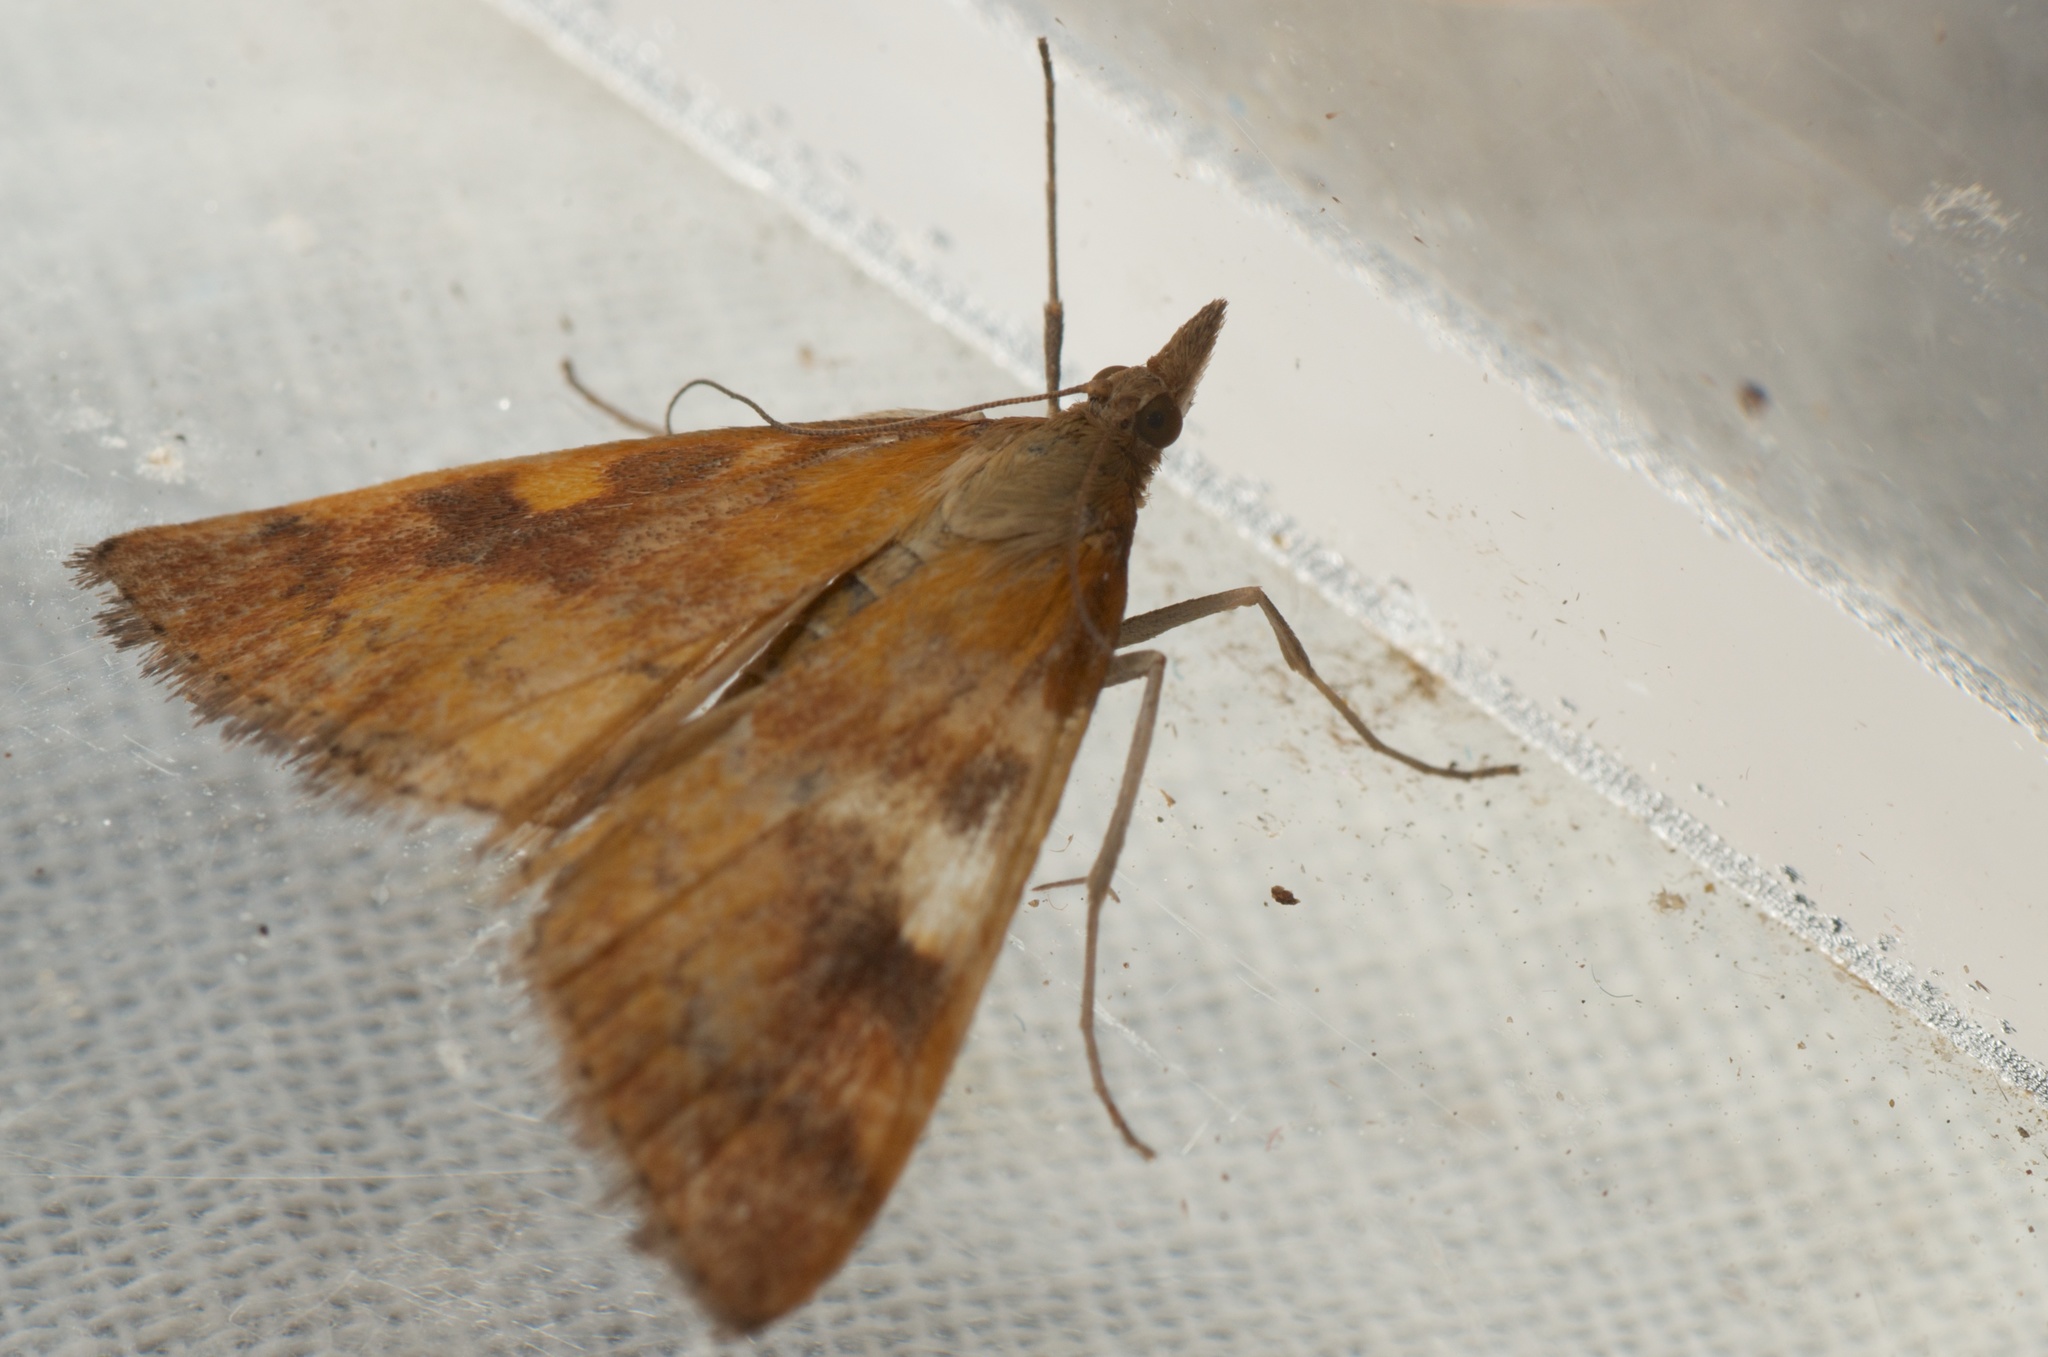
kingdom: Animalia
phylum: Arthropoda
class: Insecta
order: Lepidoptera
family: Crambidae
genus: Udea
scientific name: Udea Mnesictena flavidalis
